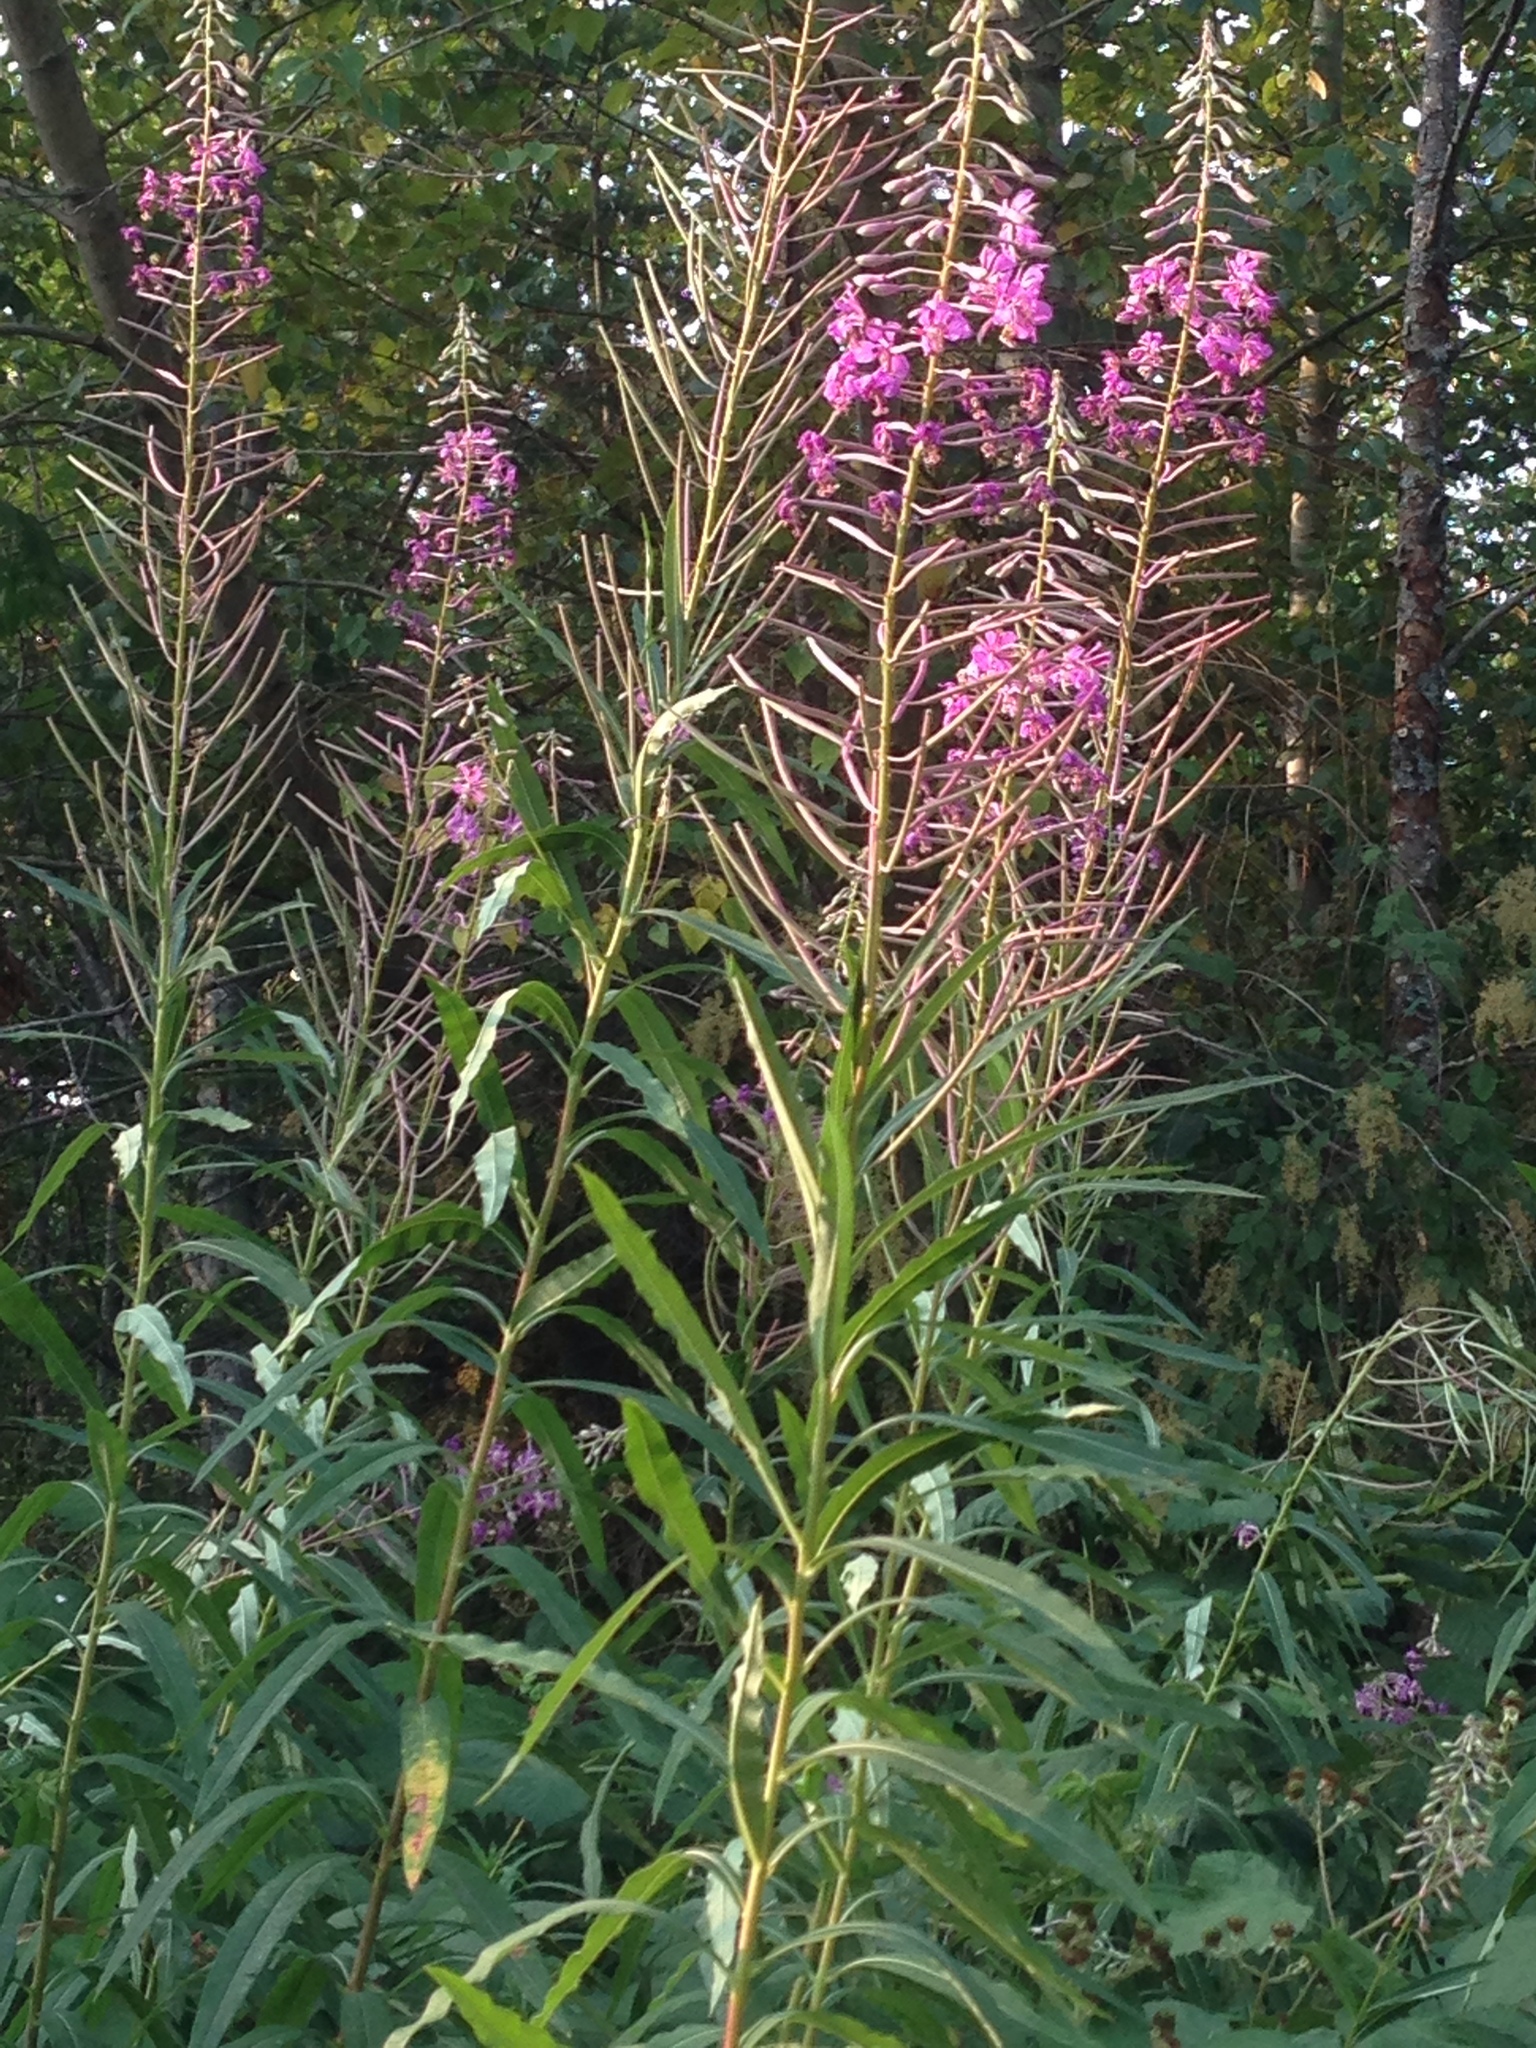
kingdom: Plantae
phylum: Tracheophyta
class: Magnoliopsida
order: Myrtales
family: Onagraceae
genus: Chamaenerion
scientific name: Chamaenerion angustifolium
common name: Fireweed
